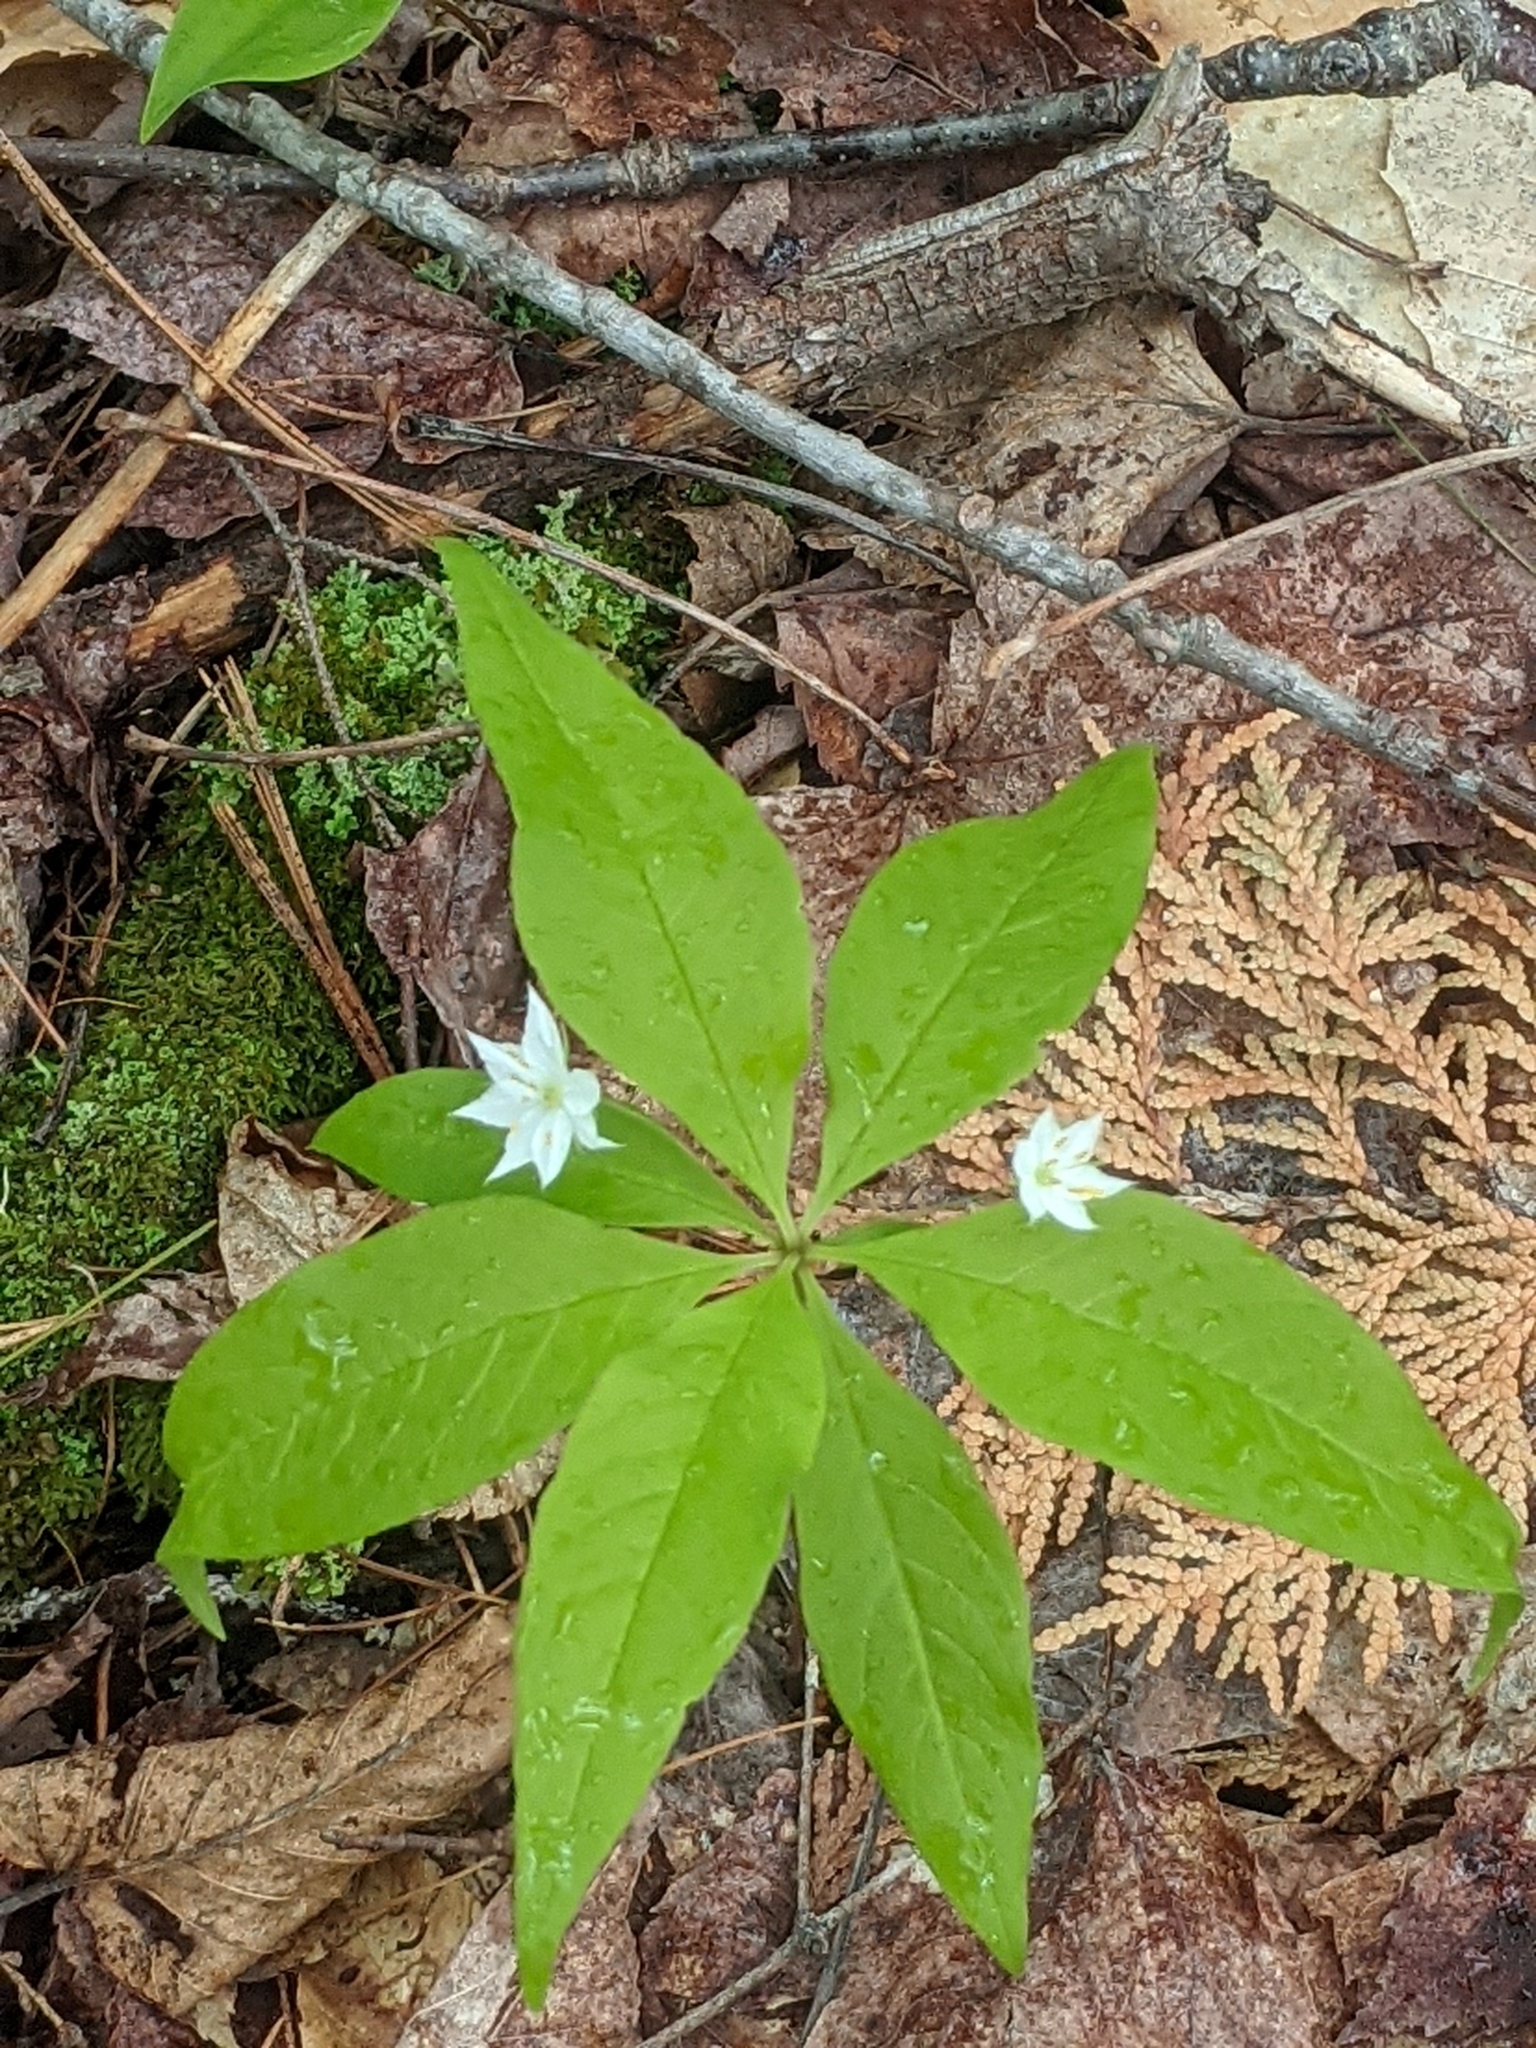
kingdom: Plantae
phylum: Tracheophyta
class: Magnoliopsida
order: Ericales
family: Primulaceae
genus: Lysimachia
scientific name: Lysimachia borealis
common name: American starflower
